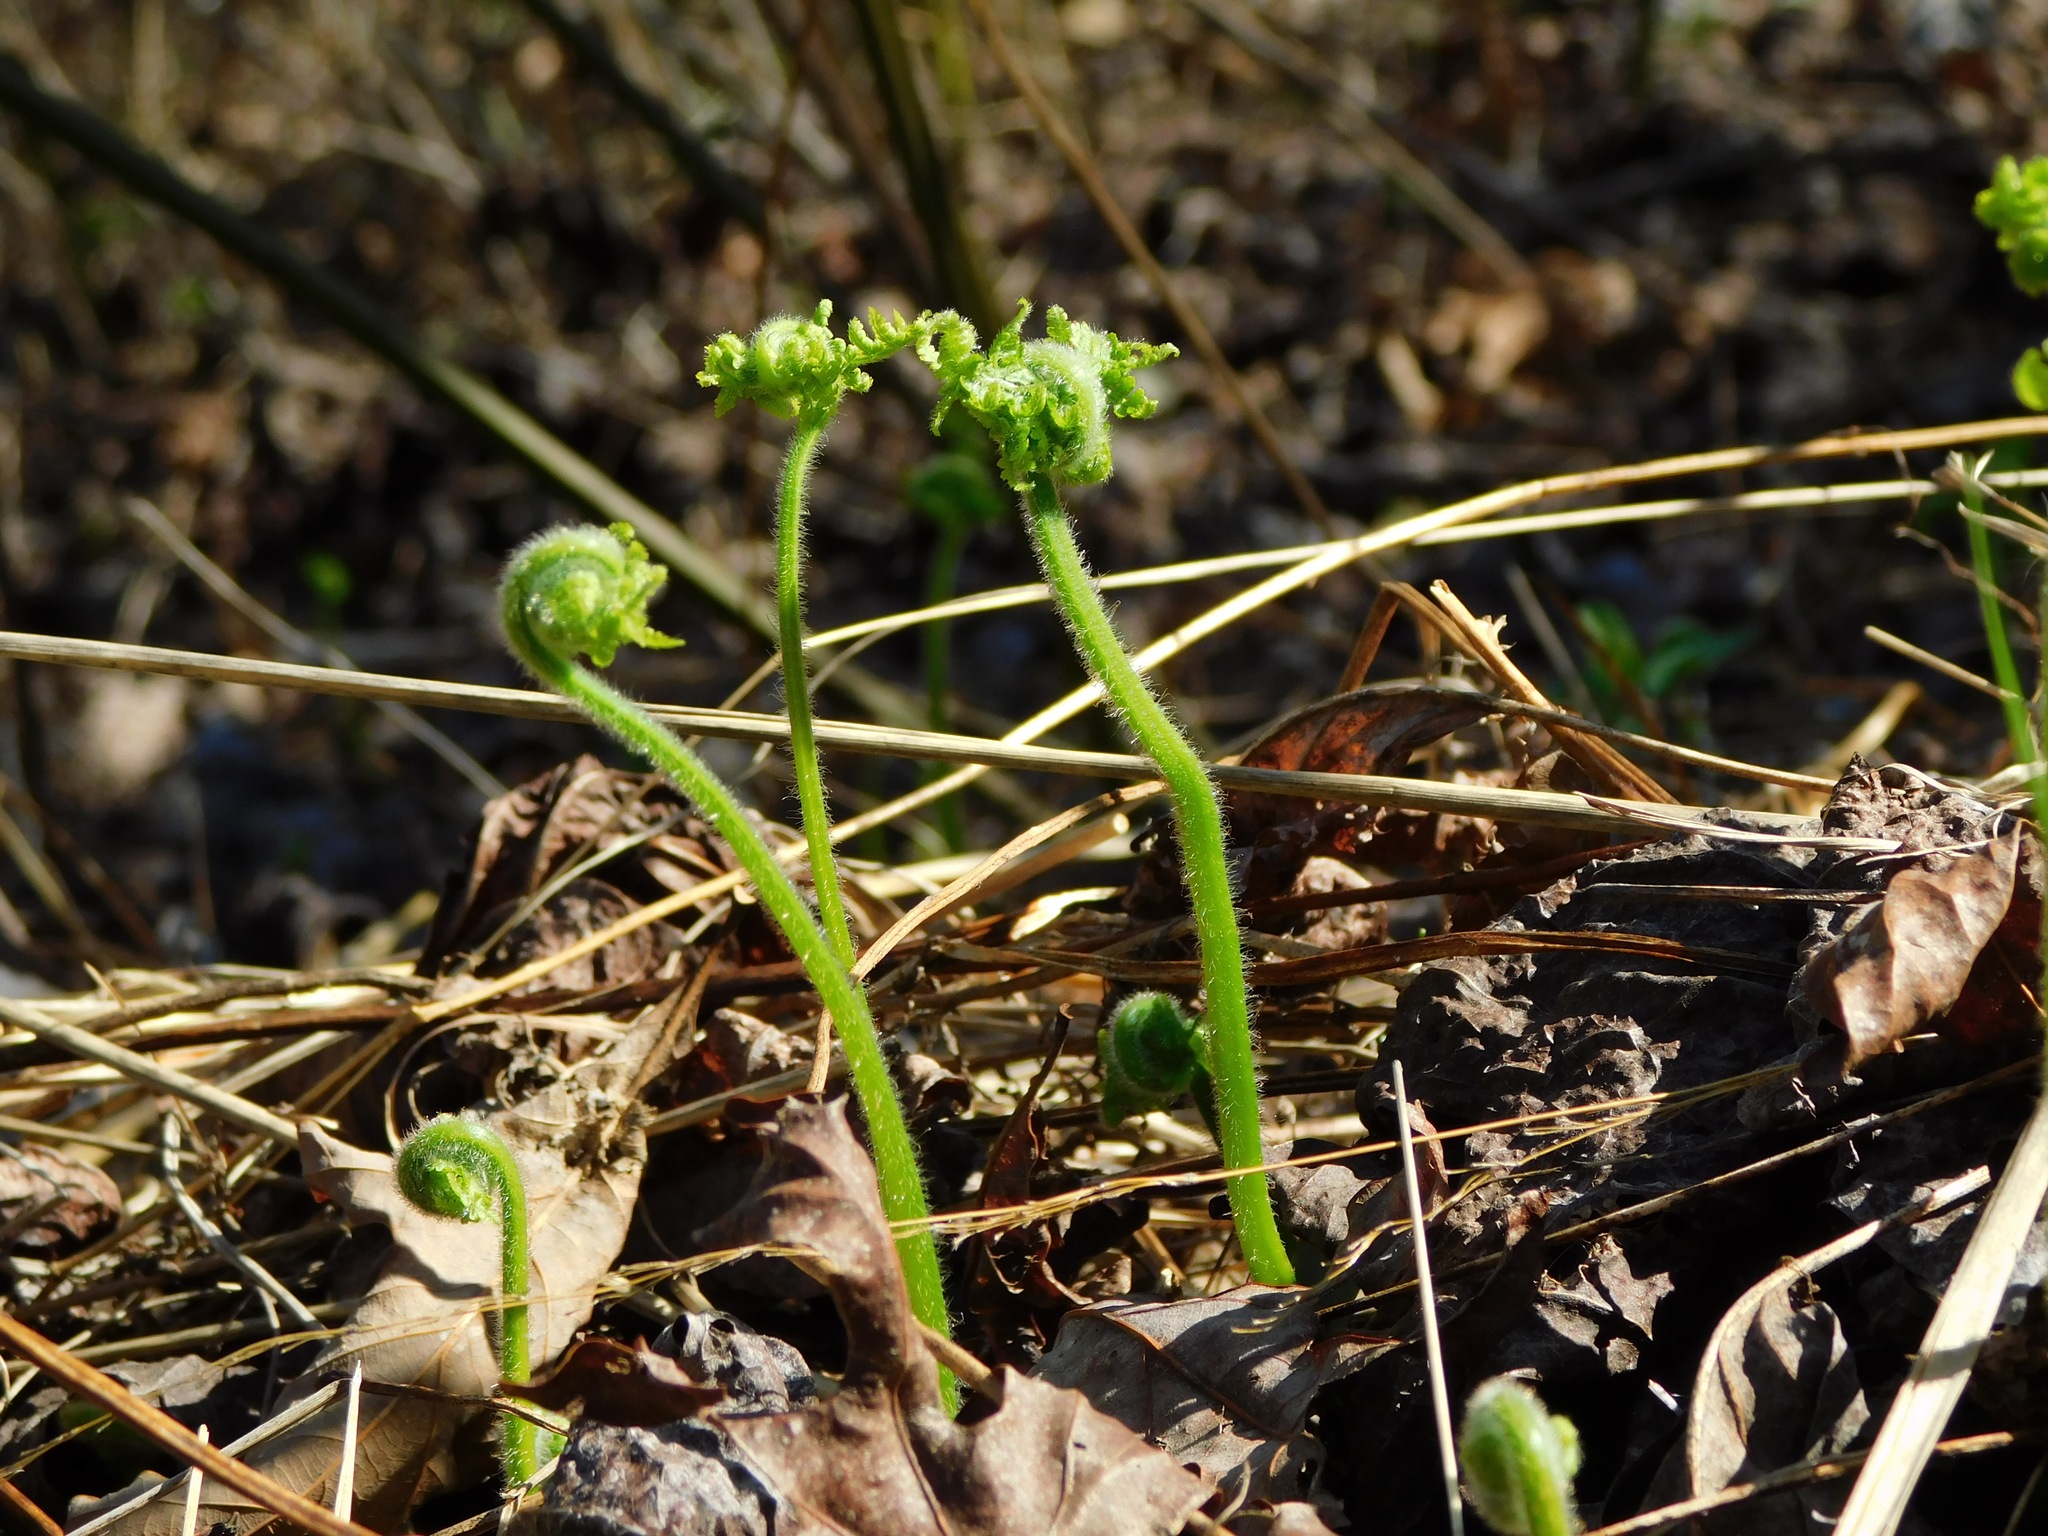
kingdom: Plantae
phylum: Tracheophyta
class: Polypodiopsida
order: Polypodiales
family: Dennstaedtiaceae
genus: Sitobolium
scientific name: Sitobolium punctilobum
